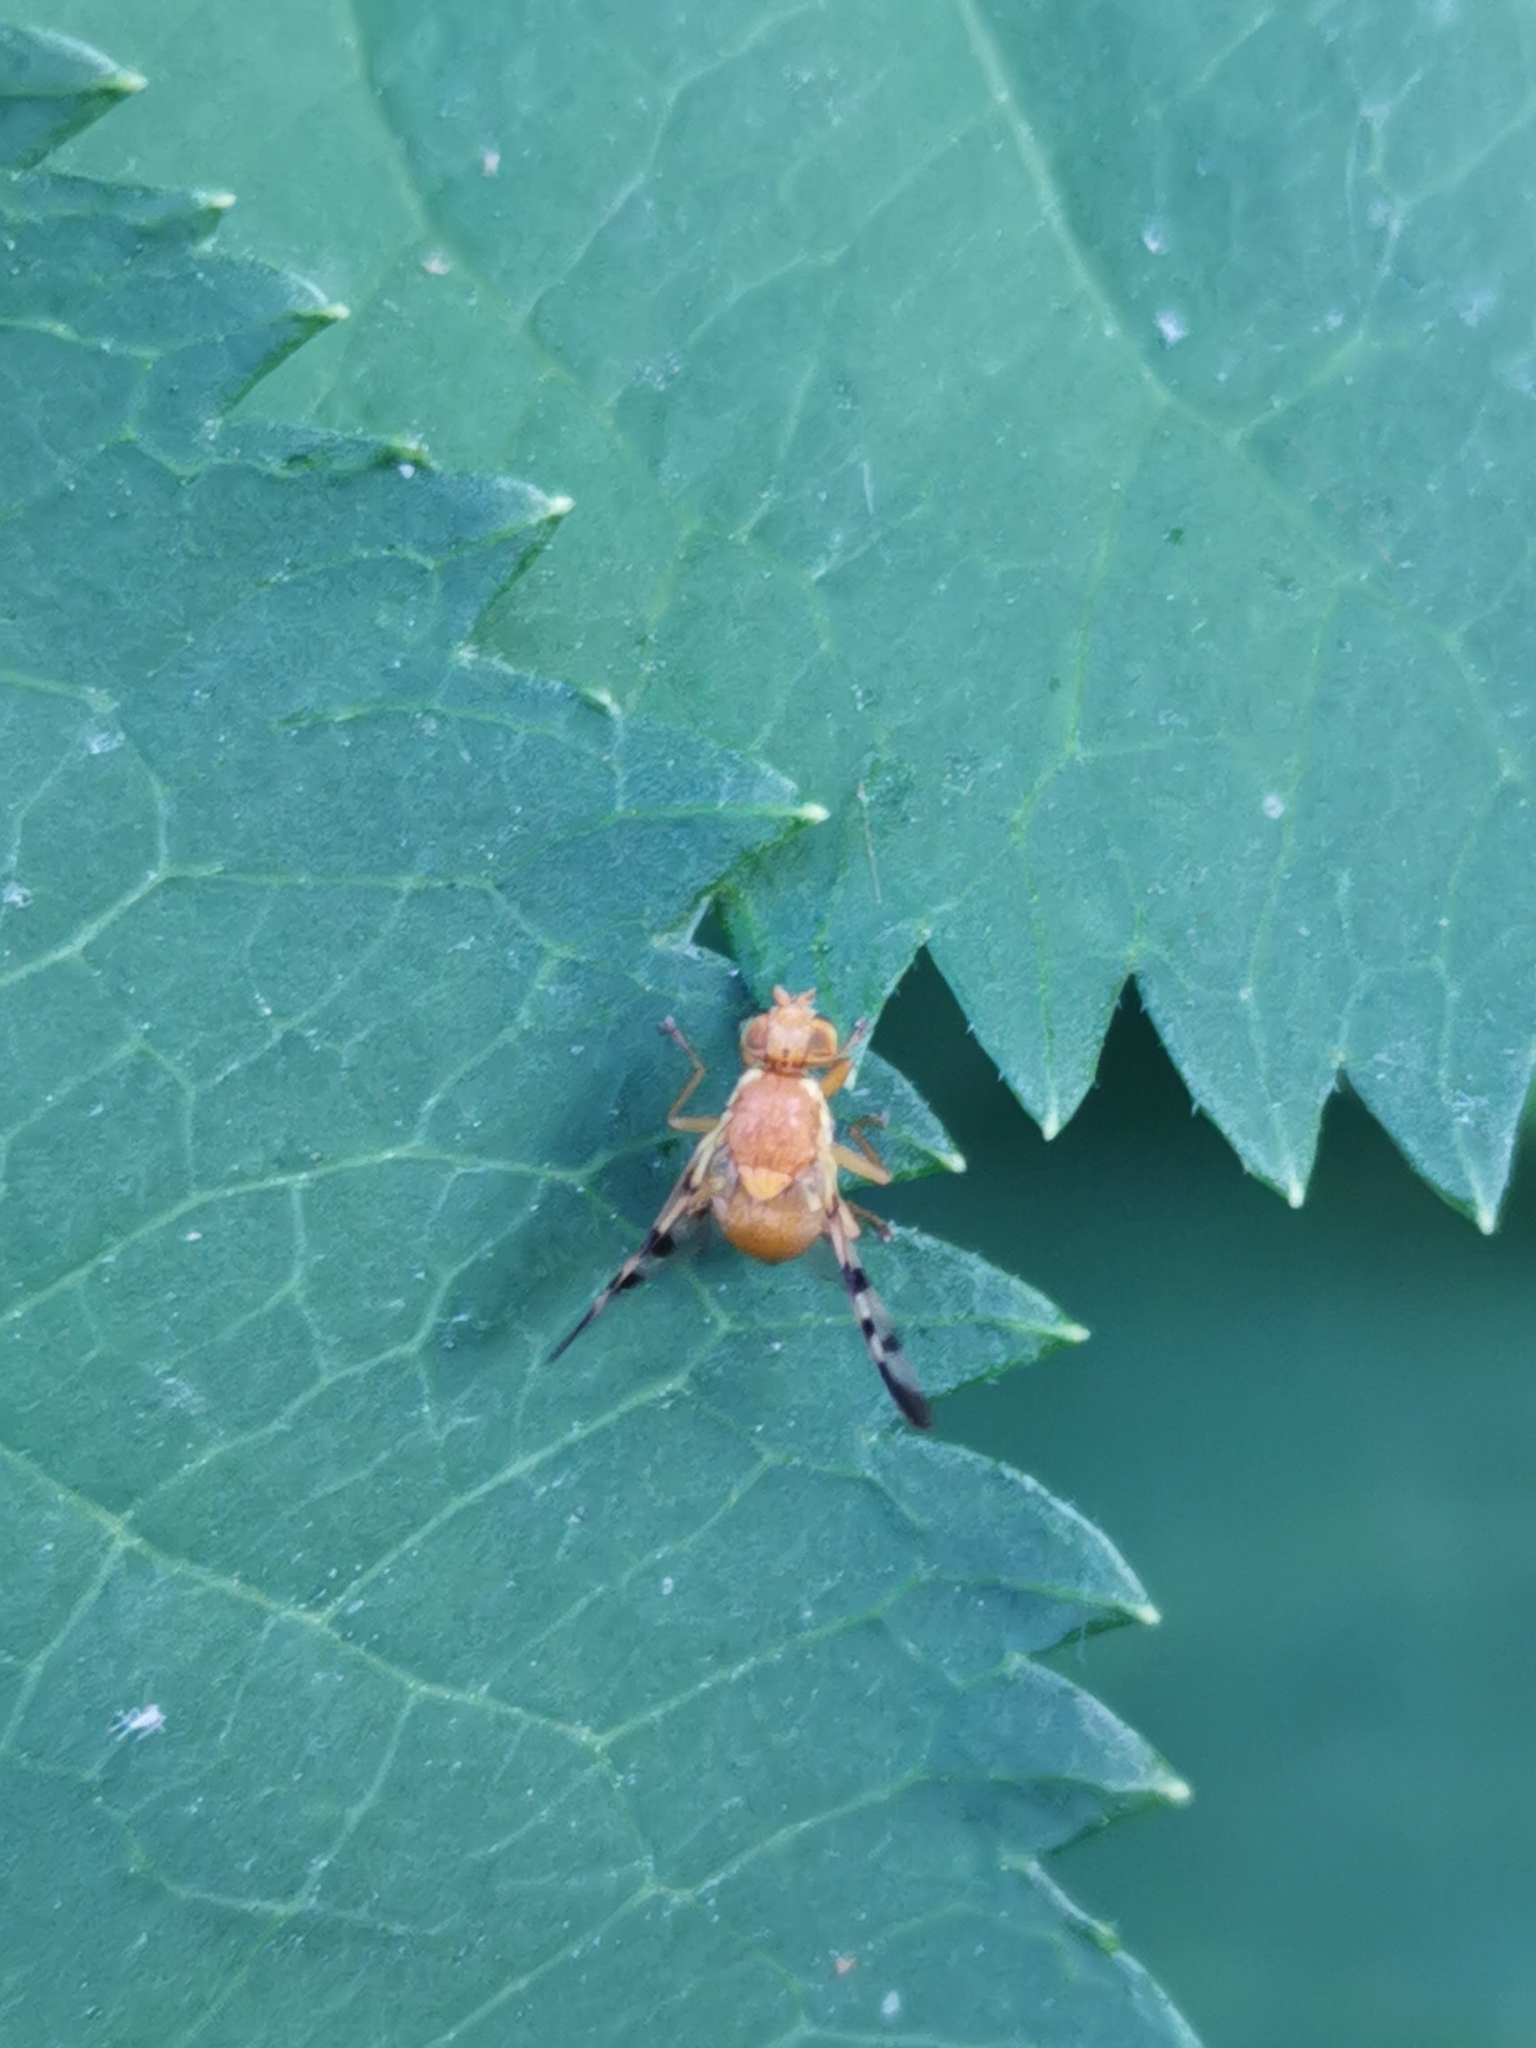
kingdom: Animalia
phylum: Arthropoda
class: Insecta
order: Diptera
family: Tephritidae
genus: Rhagoletis
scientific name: Rhagoletis meigenii
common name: Fruit fly
